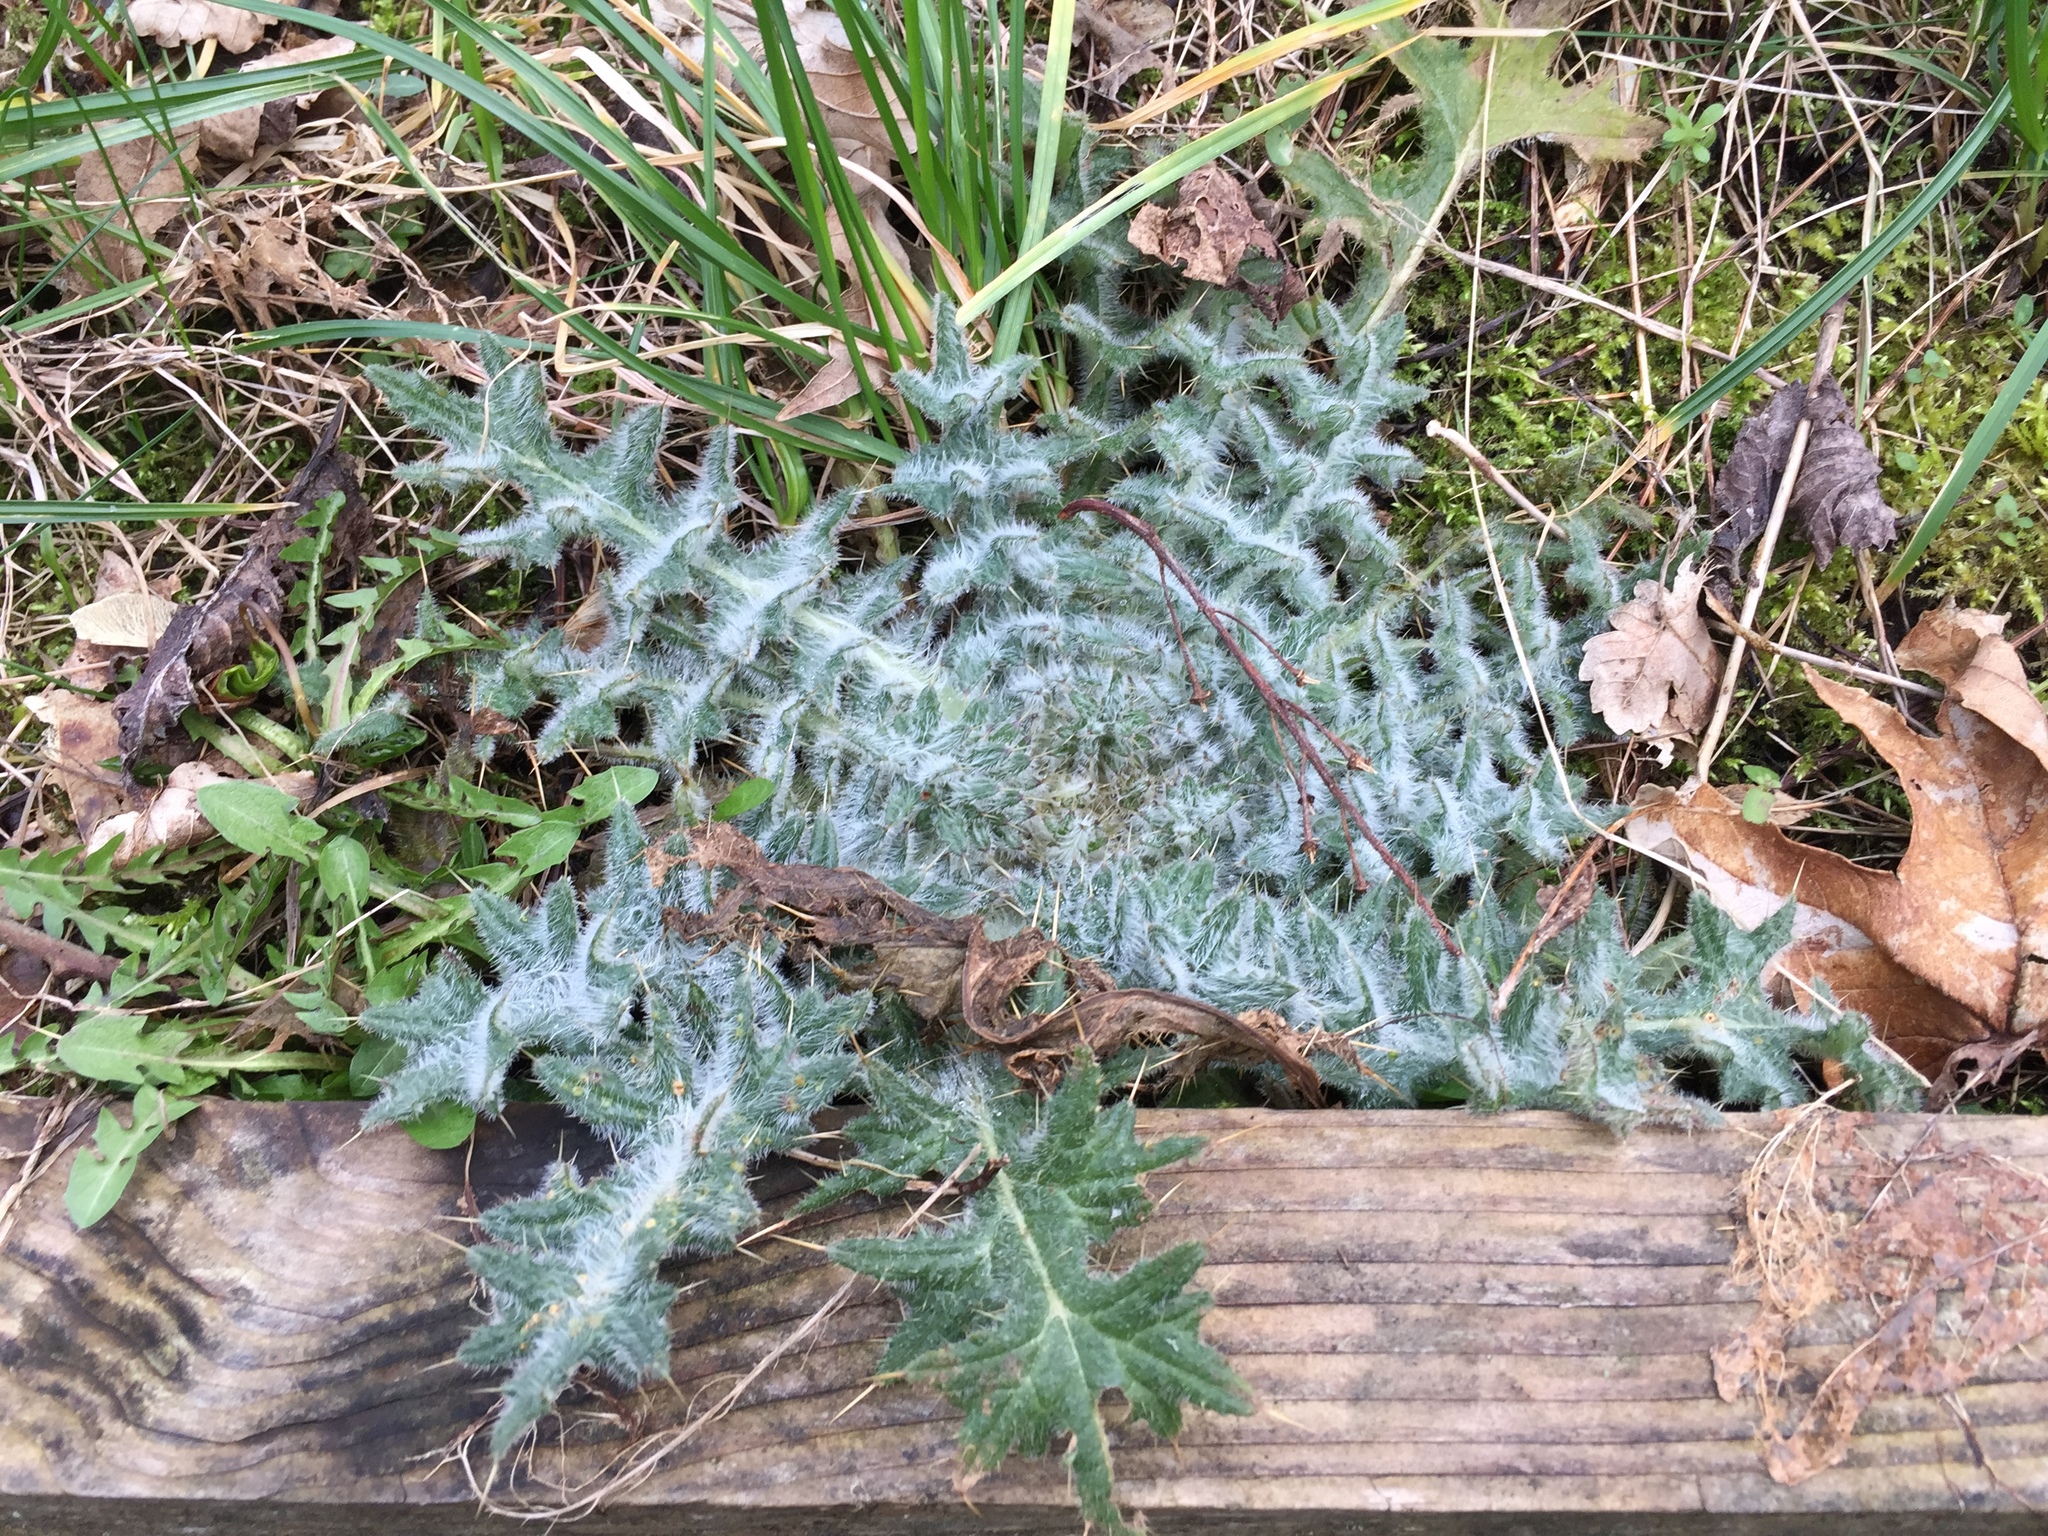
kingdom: Plantae
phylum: Tracheophyta
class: Magnoliopsida
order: Asterales
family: Asteraceae
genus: Cirsium
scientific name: Cirsium vulgare
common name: Bull thistle
